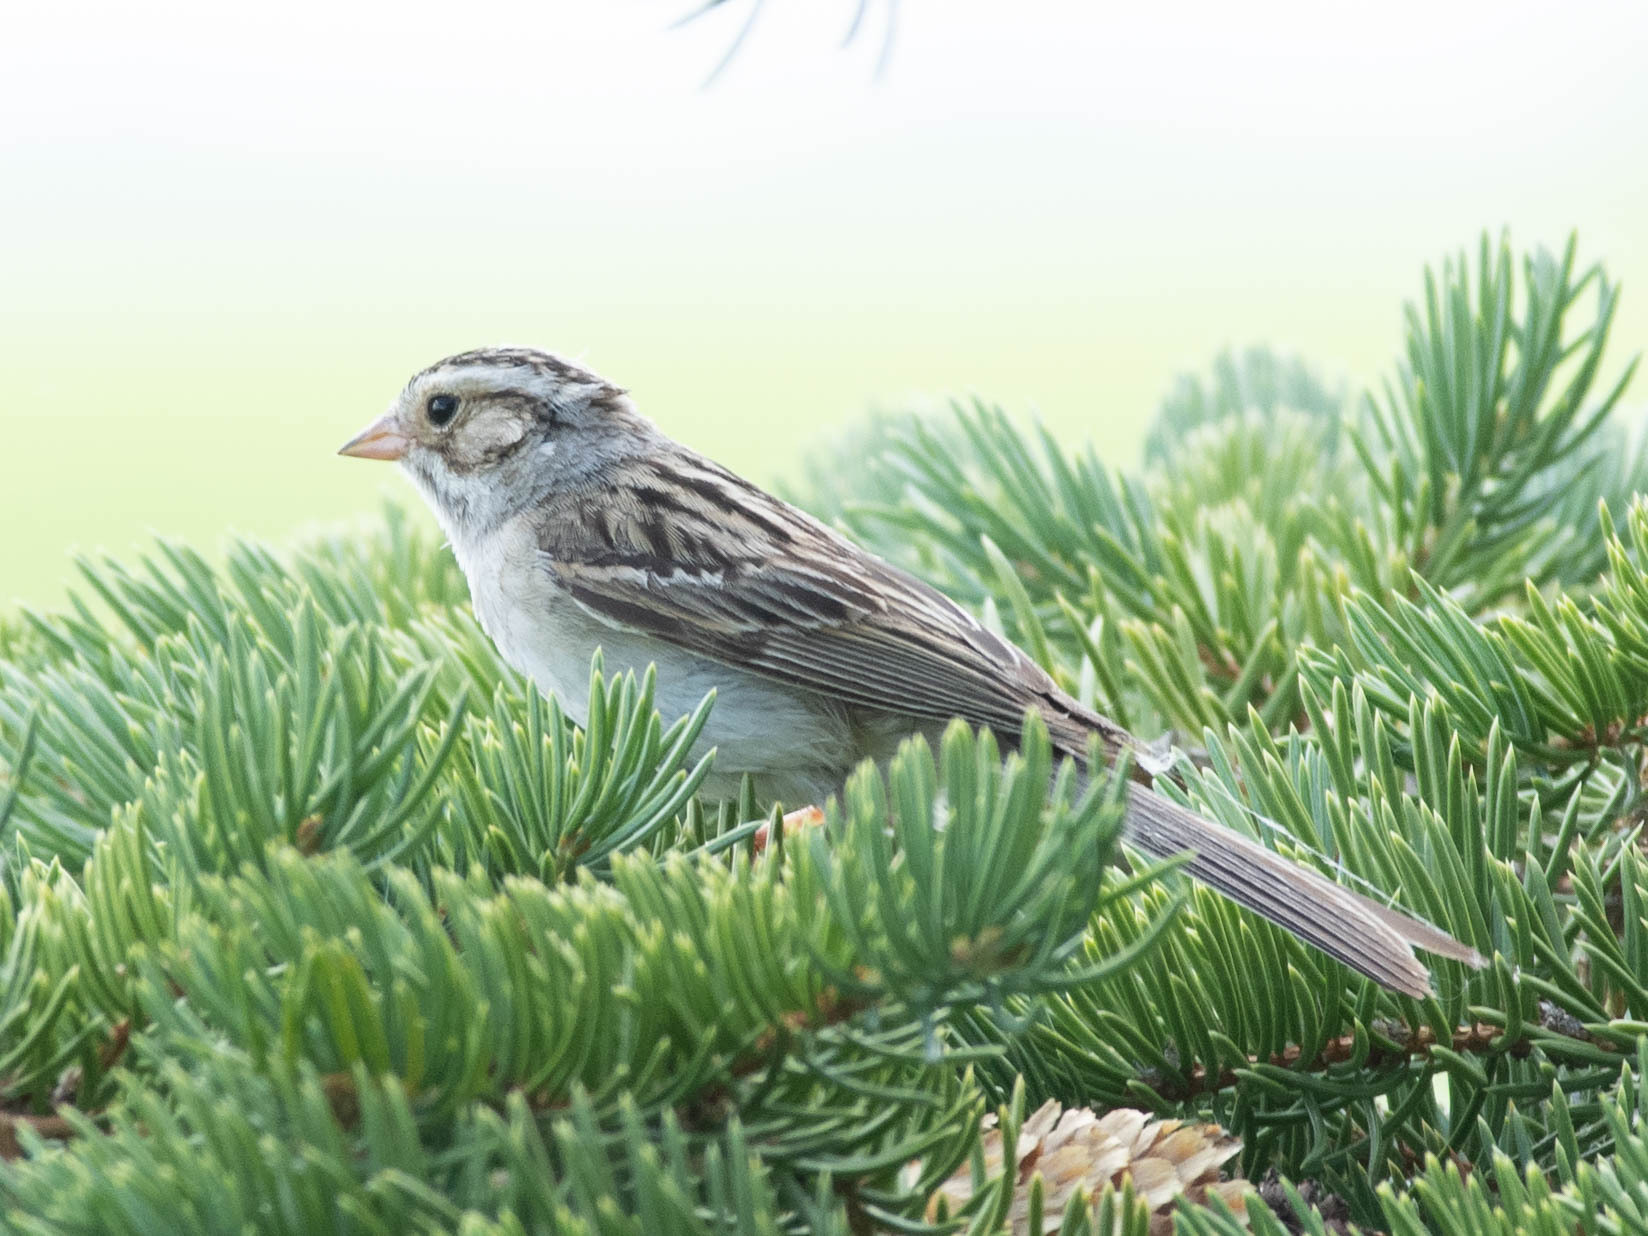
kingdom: Animalia
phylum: Chordata
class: Aves
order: Passeriformes
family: Passerellidae
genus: Spizella
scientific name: Spizella pallida
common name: Clay-colored sparrow
